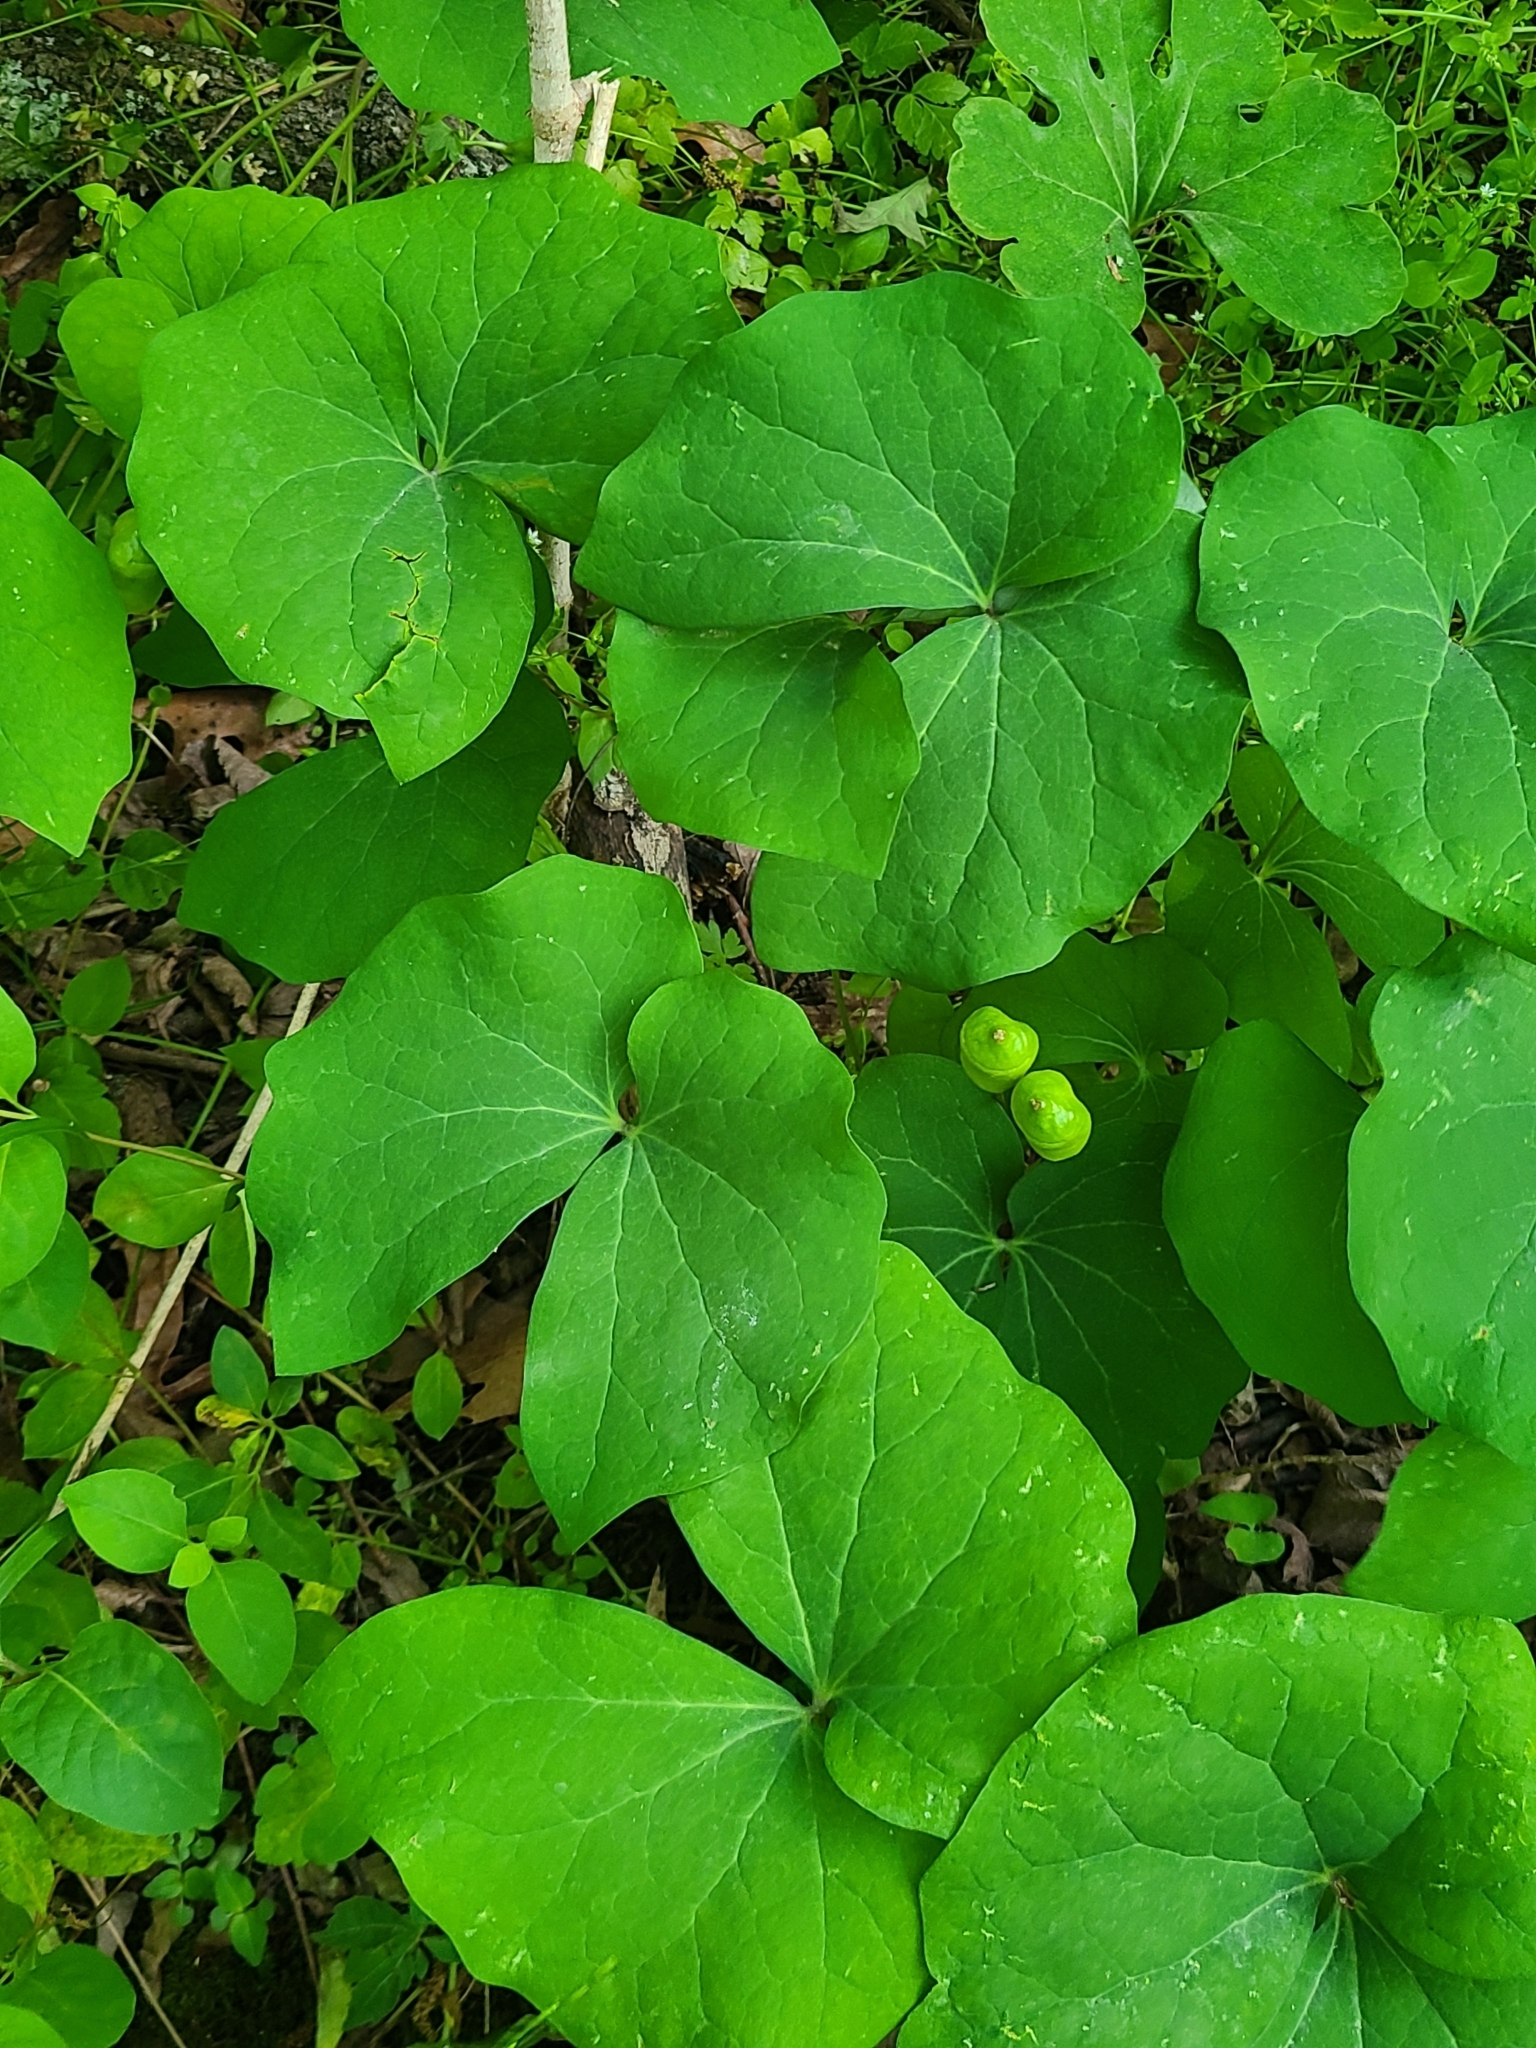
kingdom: Plantae
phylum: Tracheophyta
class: Magnoliopsida
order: Ranunculales
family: Berberidaceae
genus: Jeffersonia
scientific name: Jeffersonia diphylla
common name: Rheumatism-root
